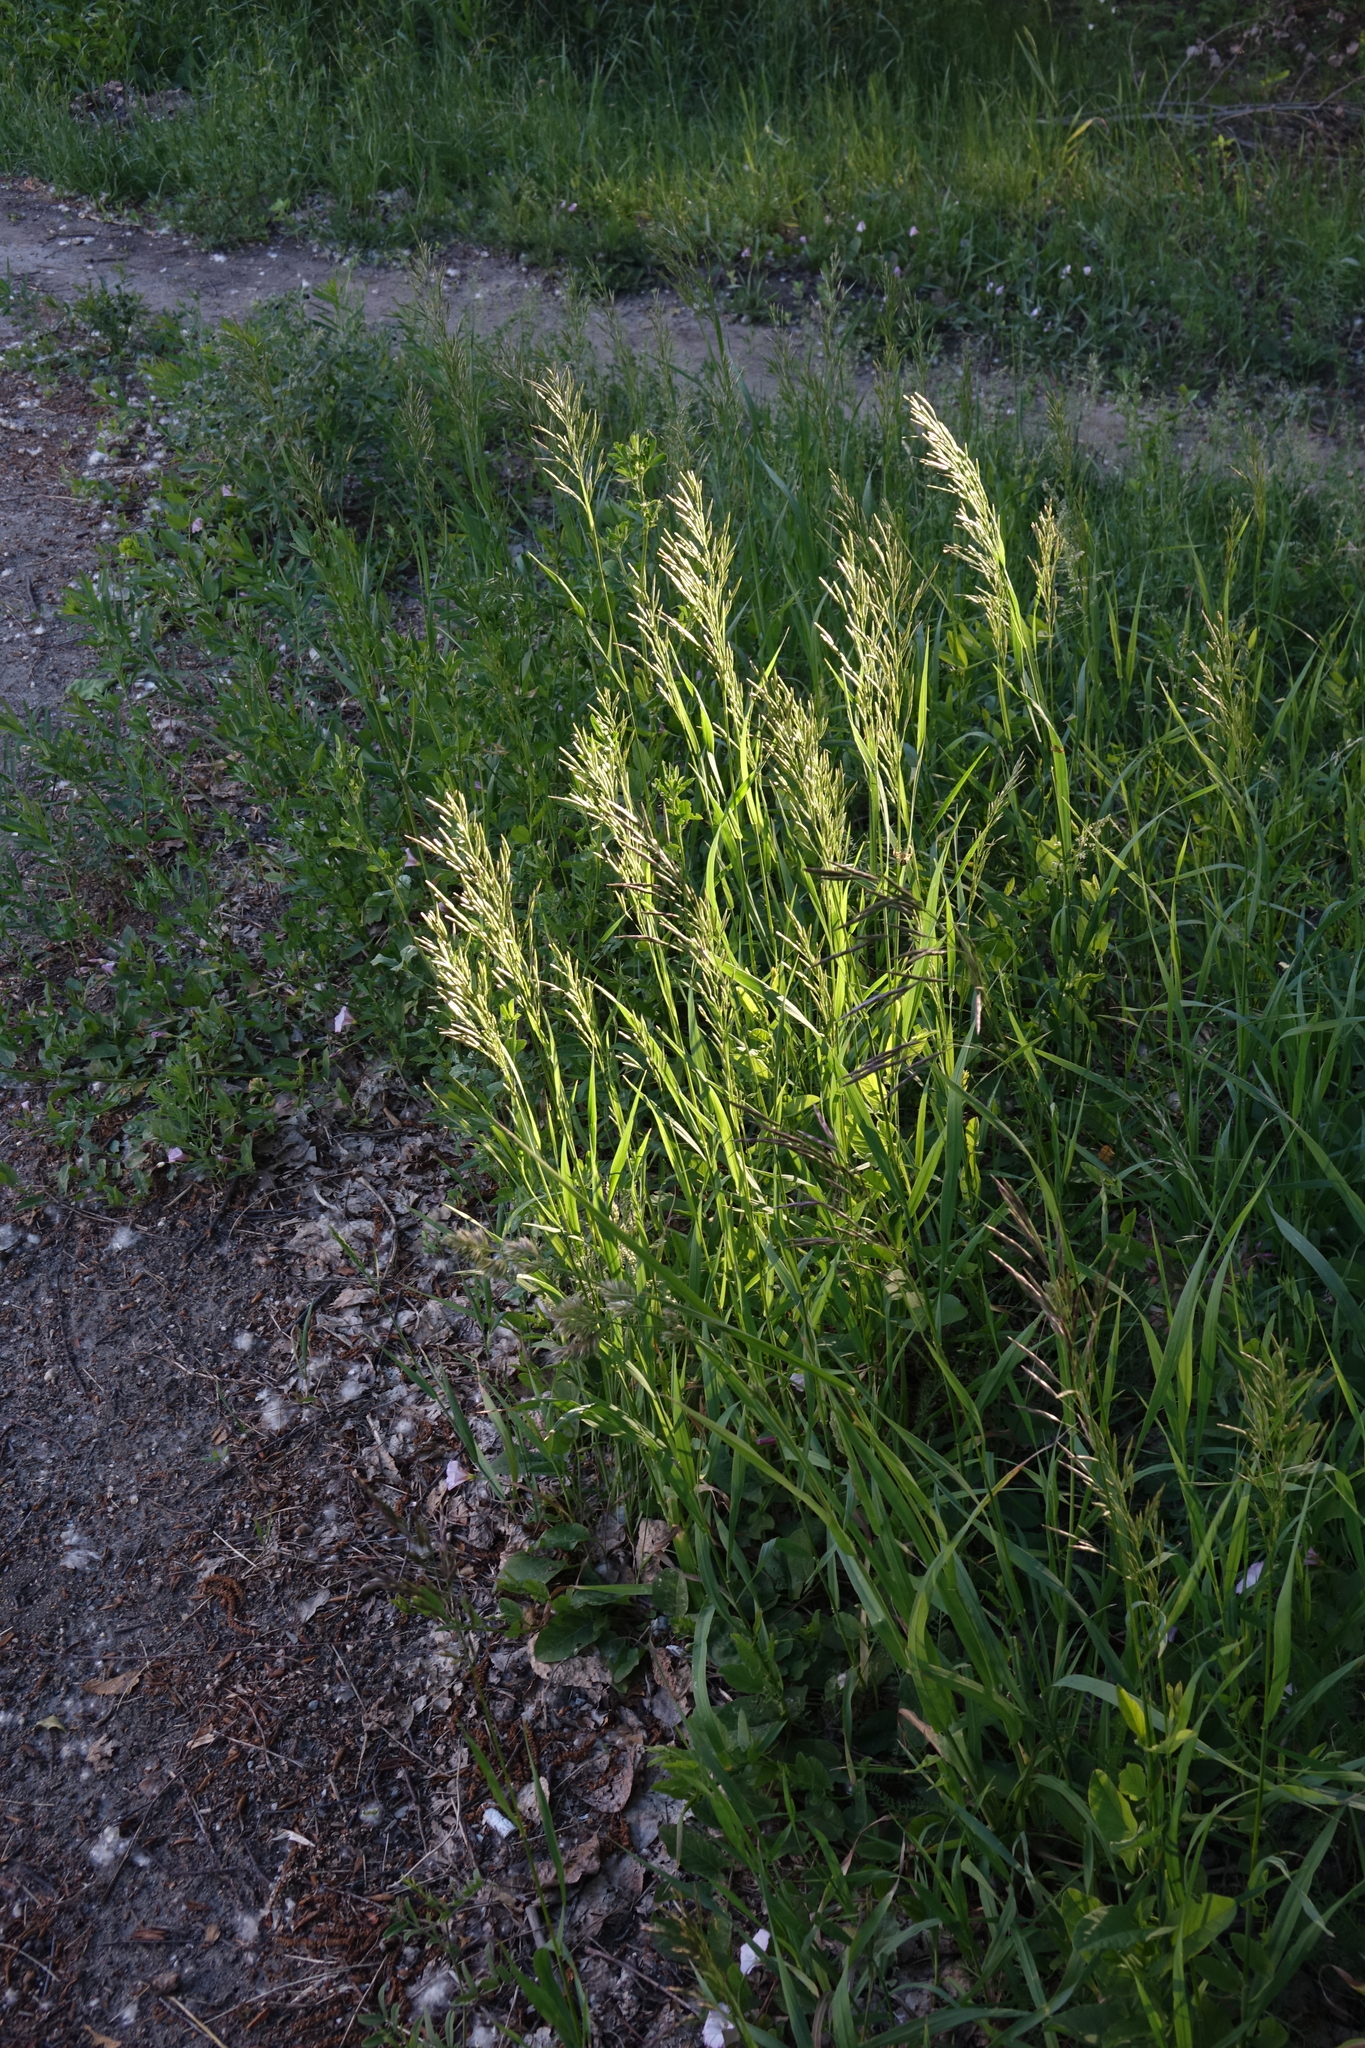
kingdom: Plantae
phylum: Tracheophyta
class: Liliopsida
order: Poales
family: Poaceae
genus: Bromus
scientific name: Bromus inermis
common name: Smooth brome
